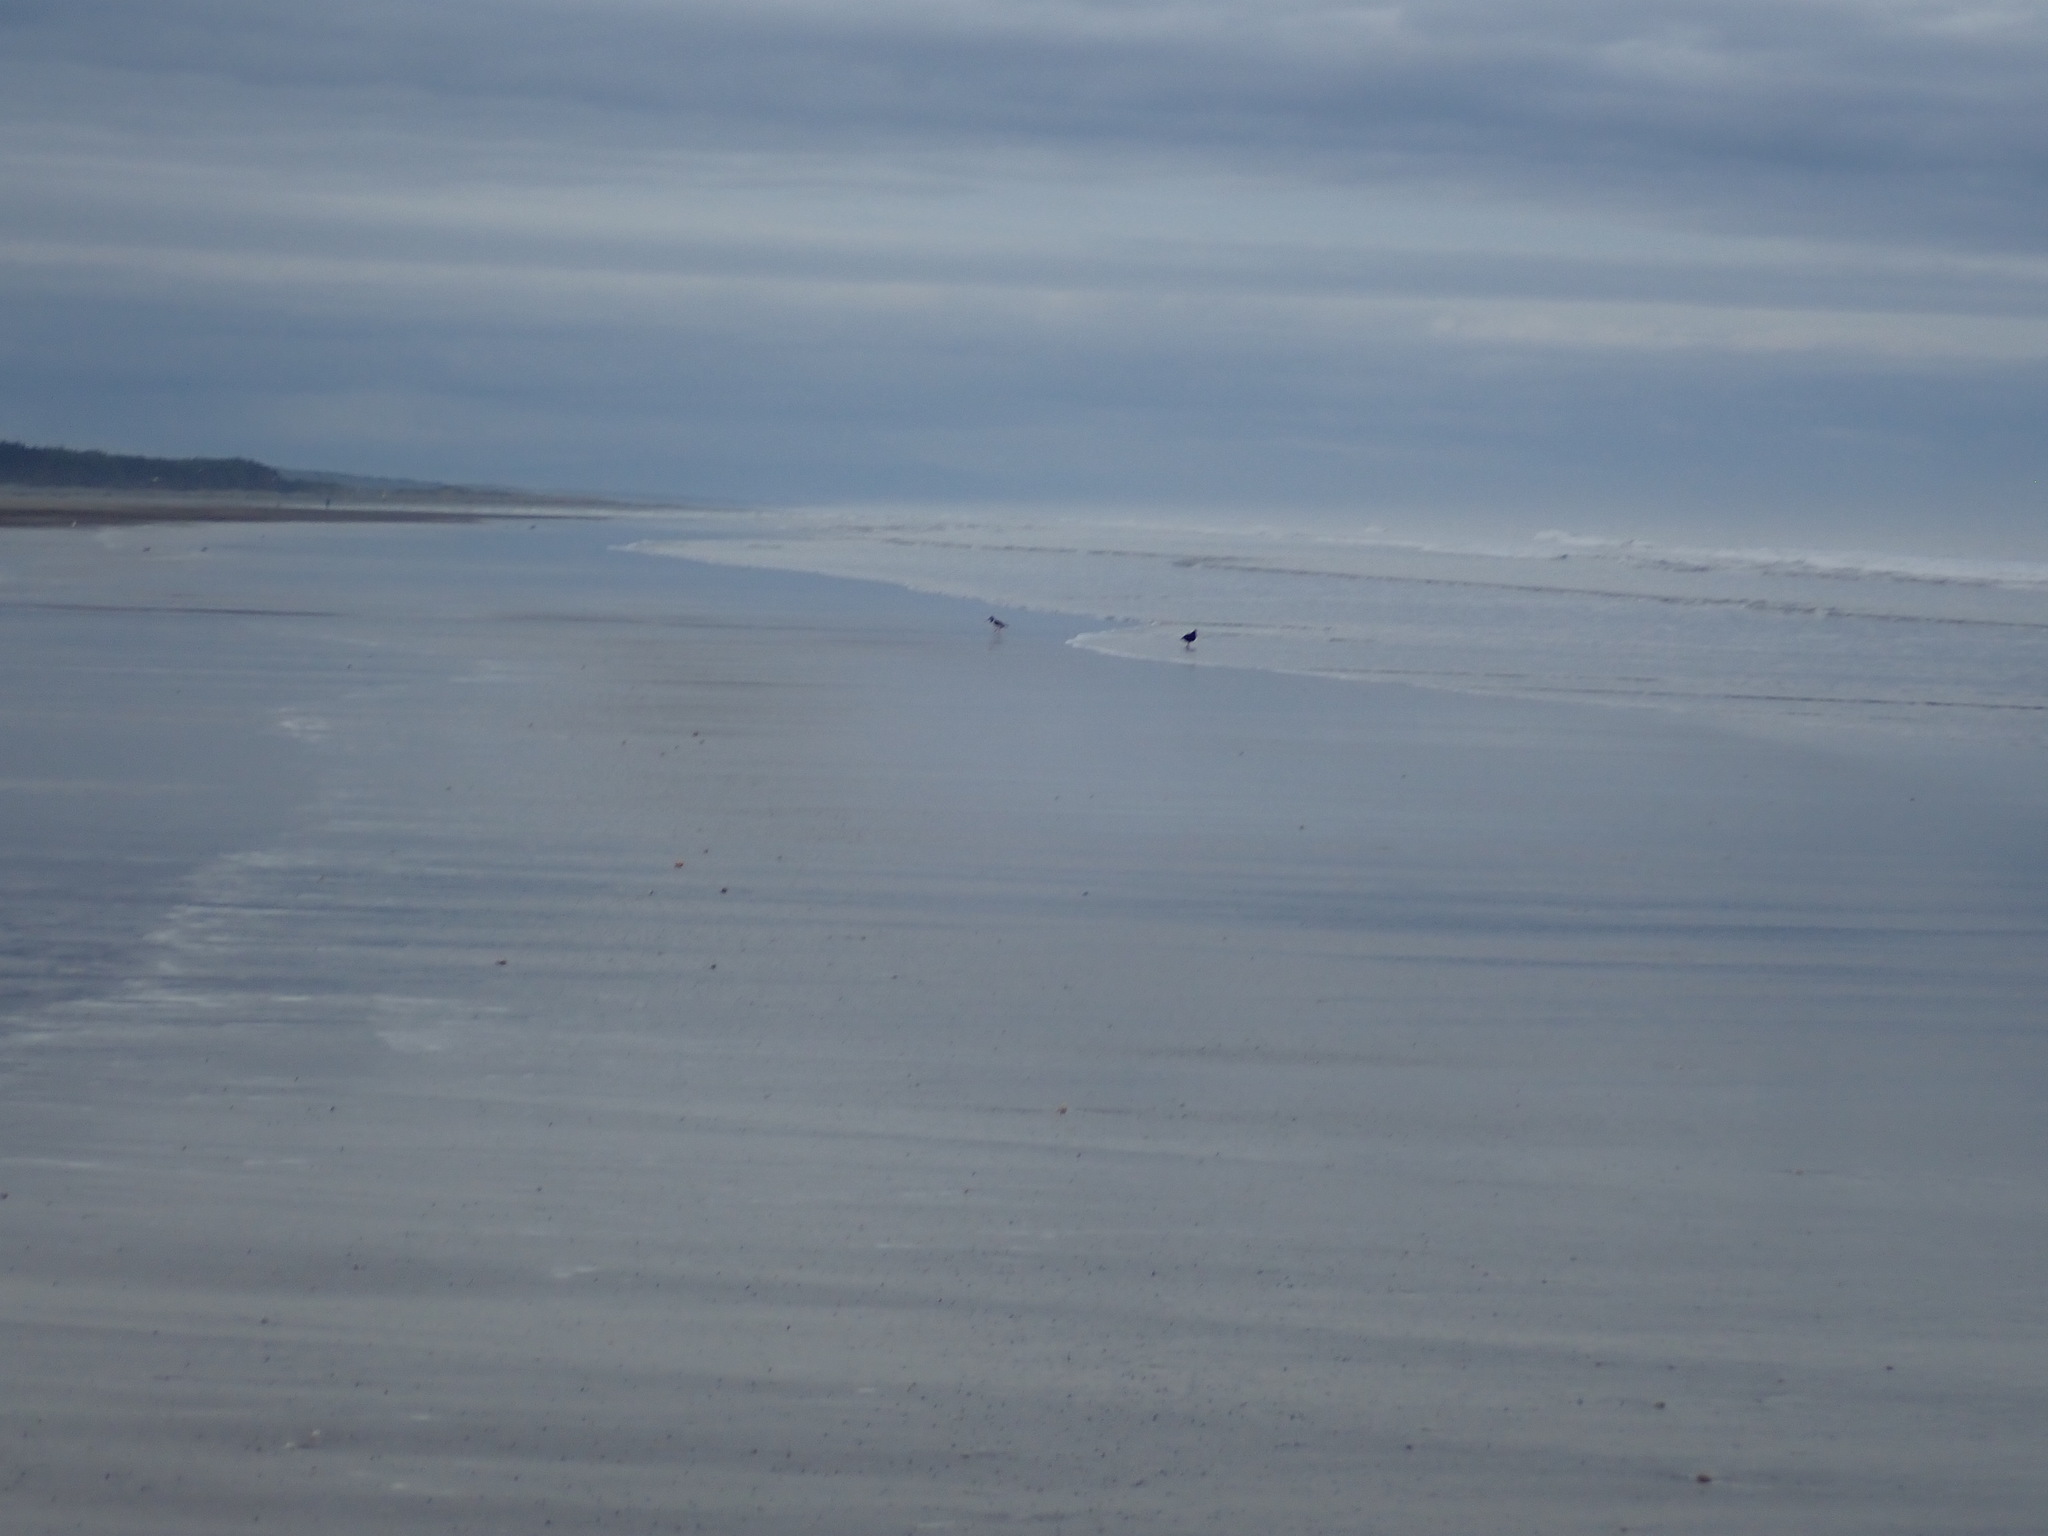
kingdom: Animalia
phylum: Chordata
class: Aves
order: Charadriiformes
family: Haematopodidae
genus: Haematopus
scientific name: Haematopus finschi
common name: South island oystercatcher
